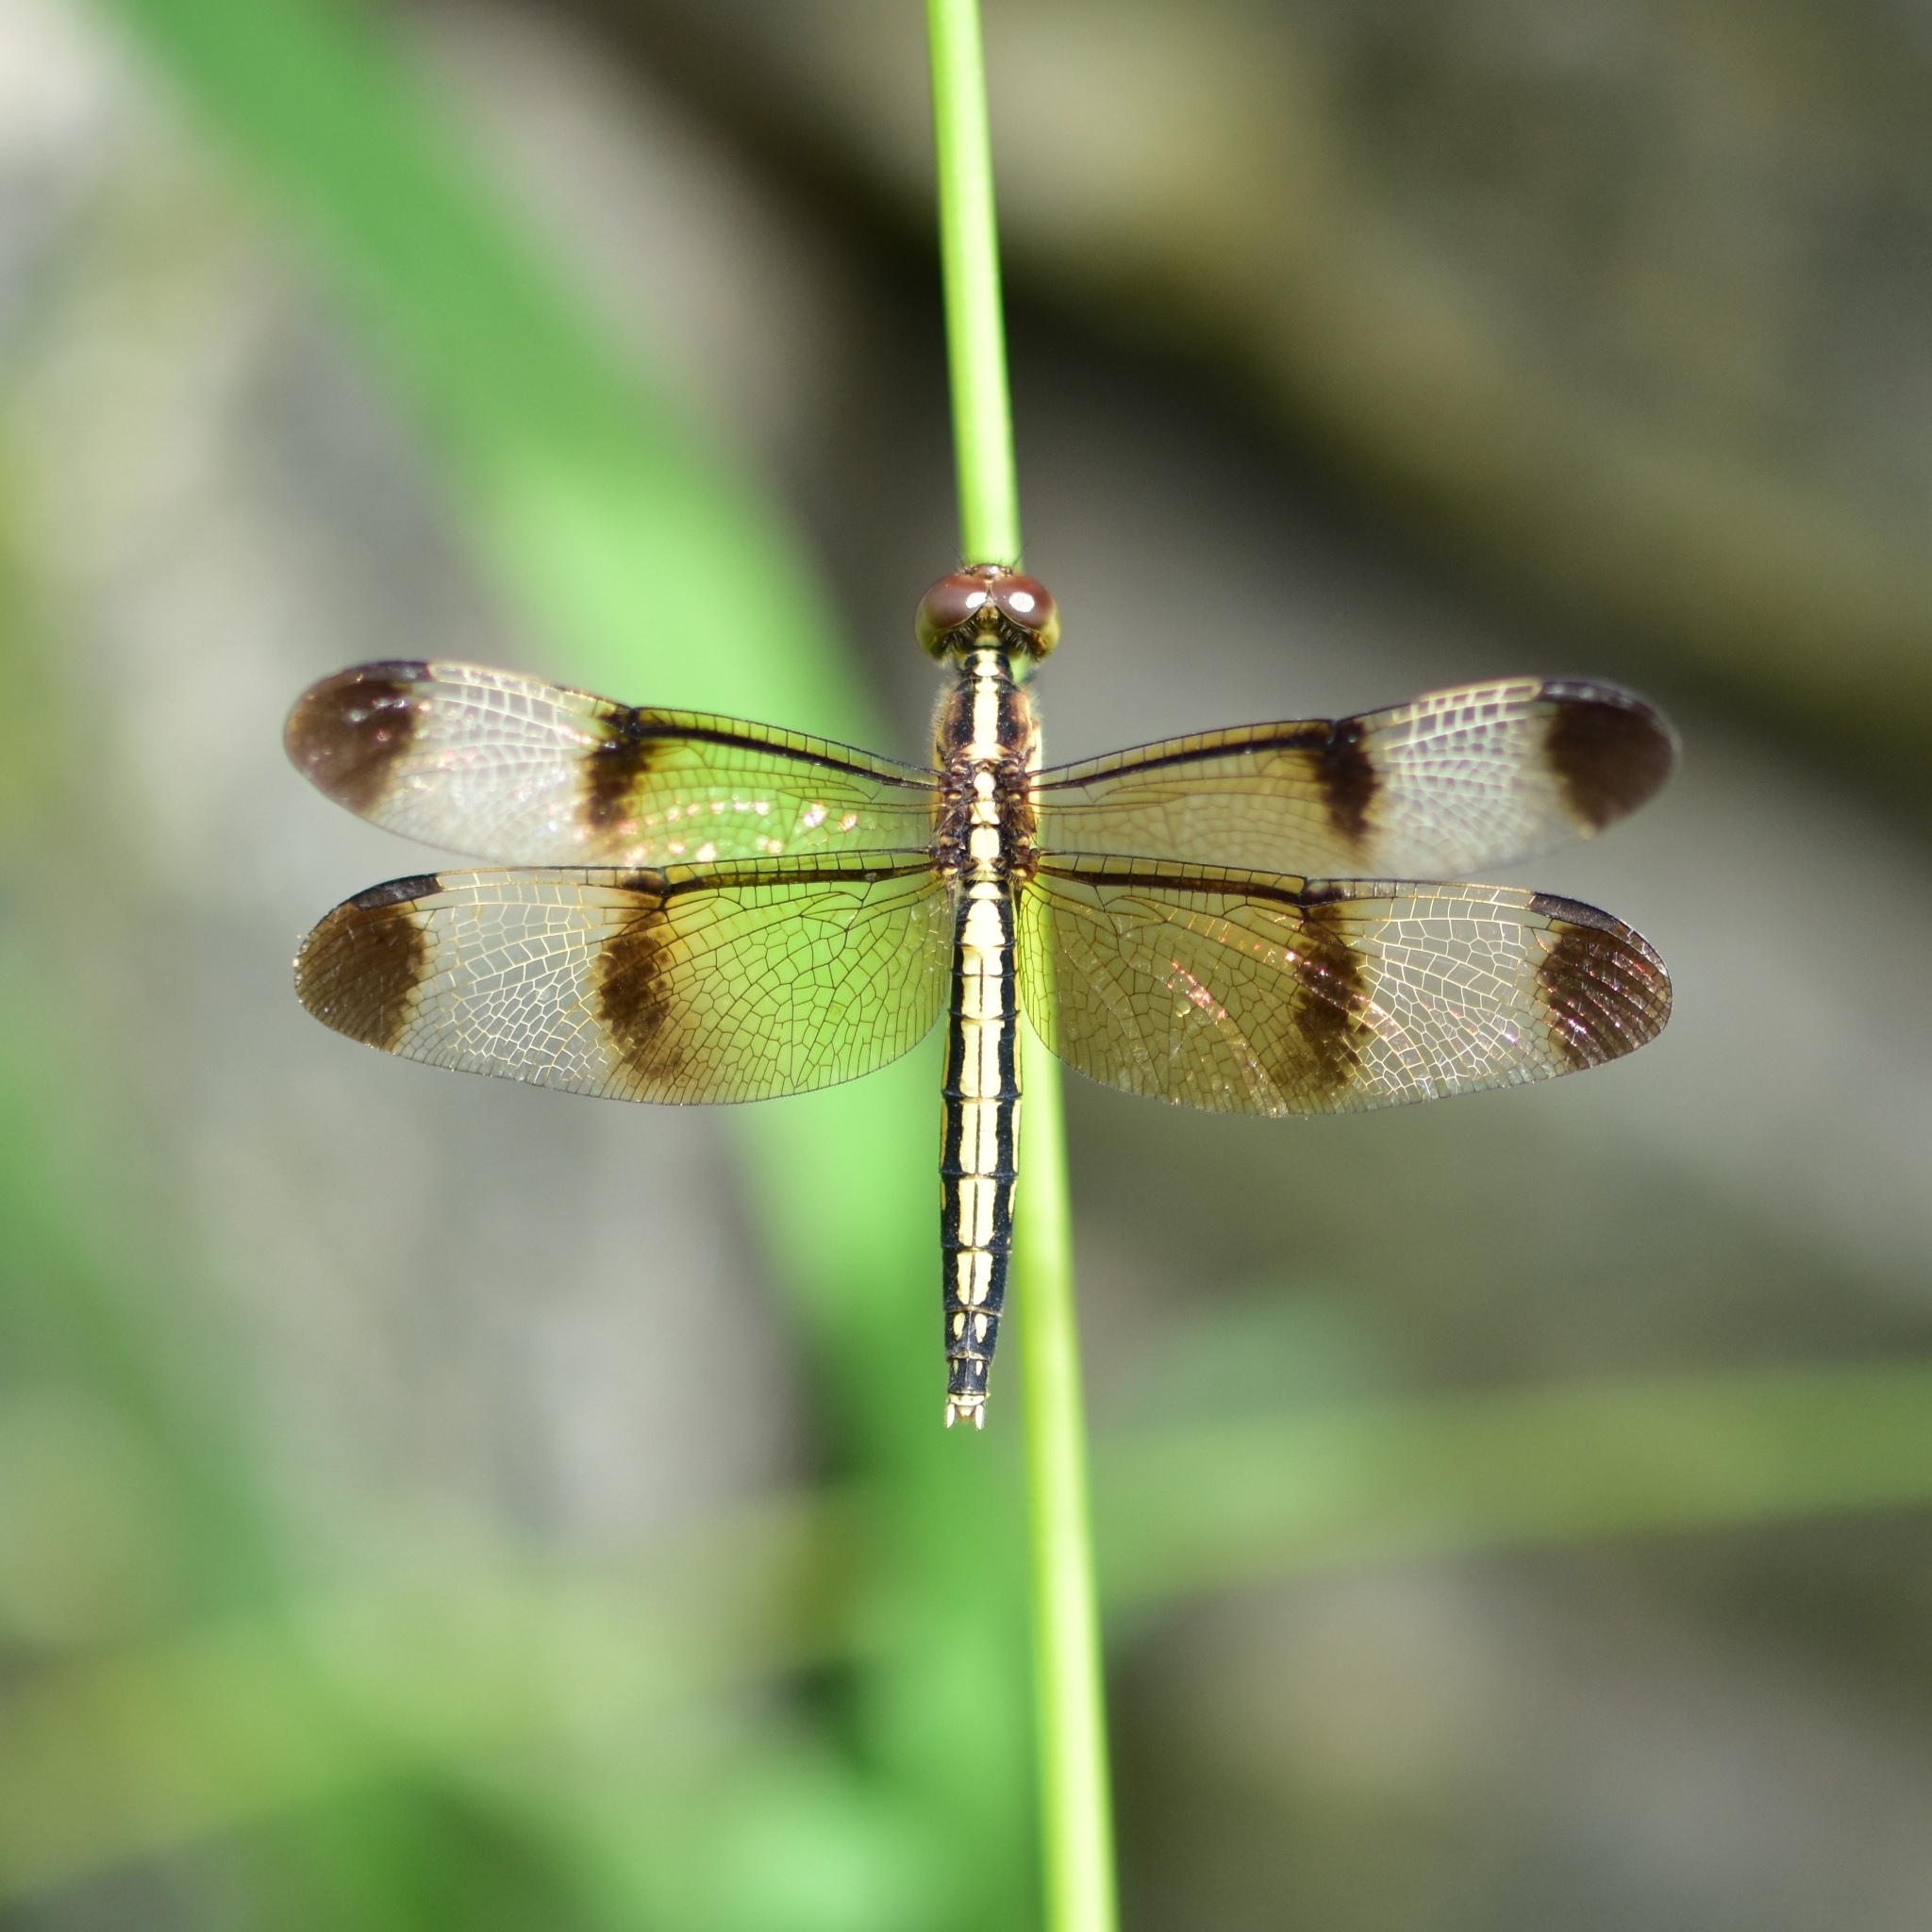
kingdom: Animalia
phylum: Arthropoda
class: Insecta
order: Odonata
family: Libellulidae
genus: Neurothemis
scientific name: Neurothemis tullia
